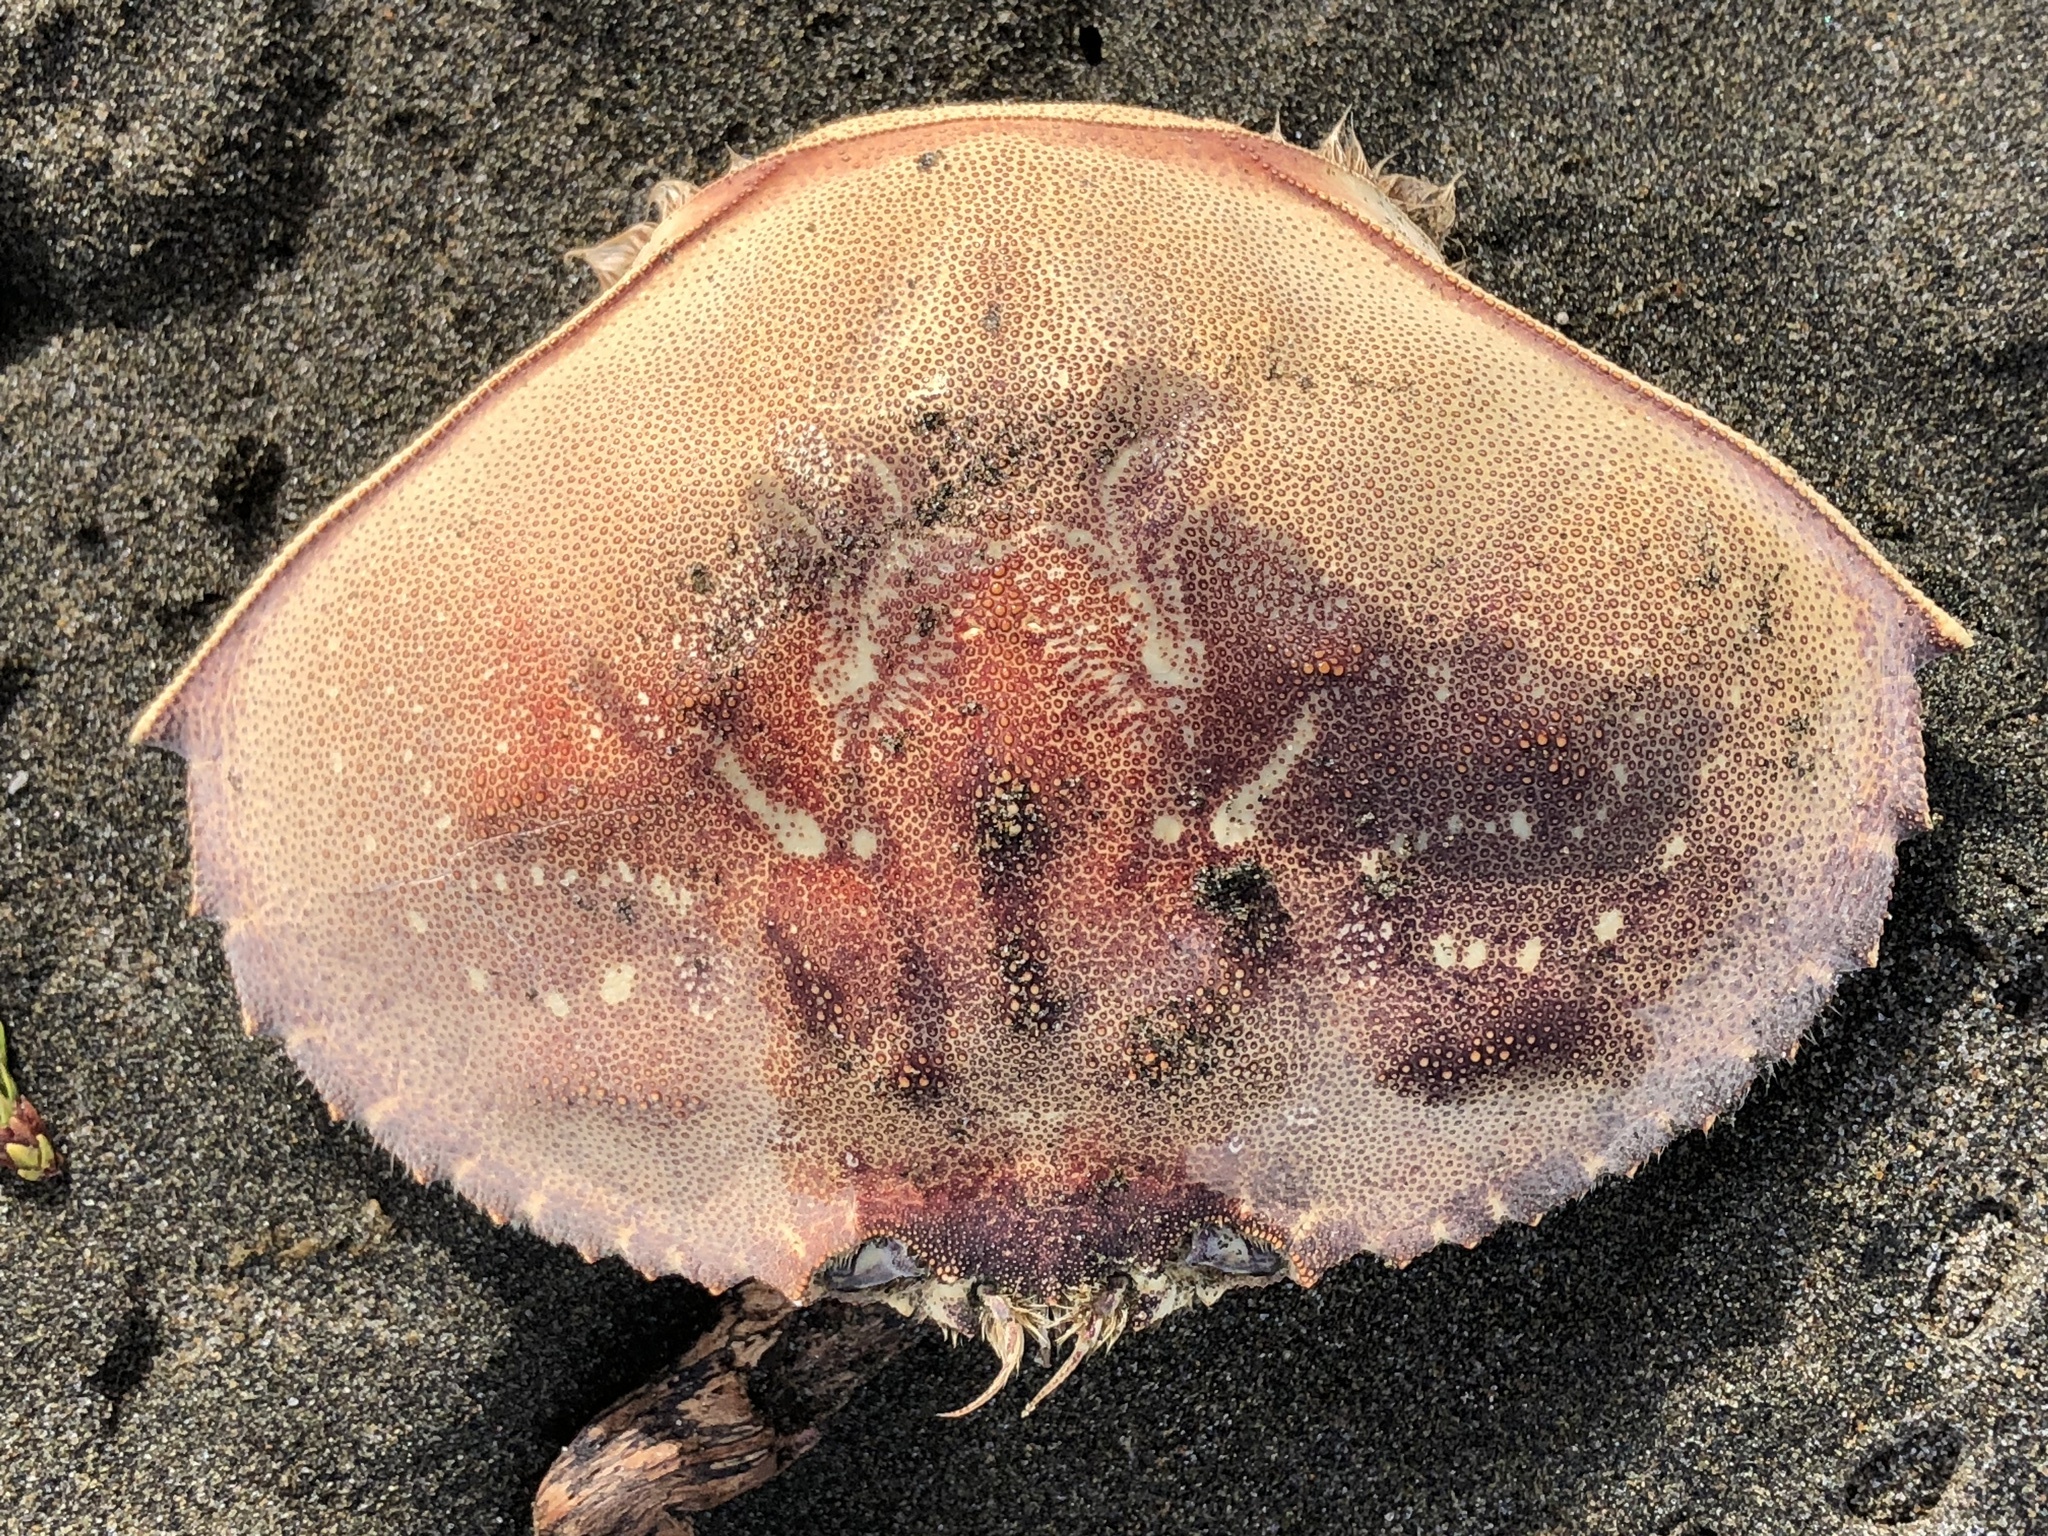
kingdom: Animalia
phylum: Arthropoda
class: Malacostraca
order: Decapoda
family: Cancridae
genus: Metacarcinus
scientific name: Metacarcinus magister
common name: Californian crab
